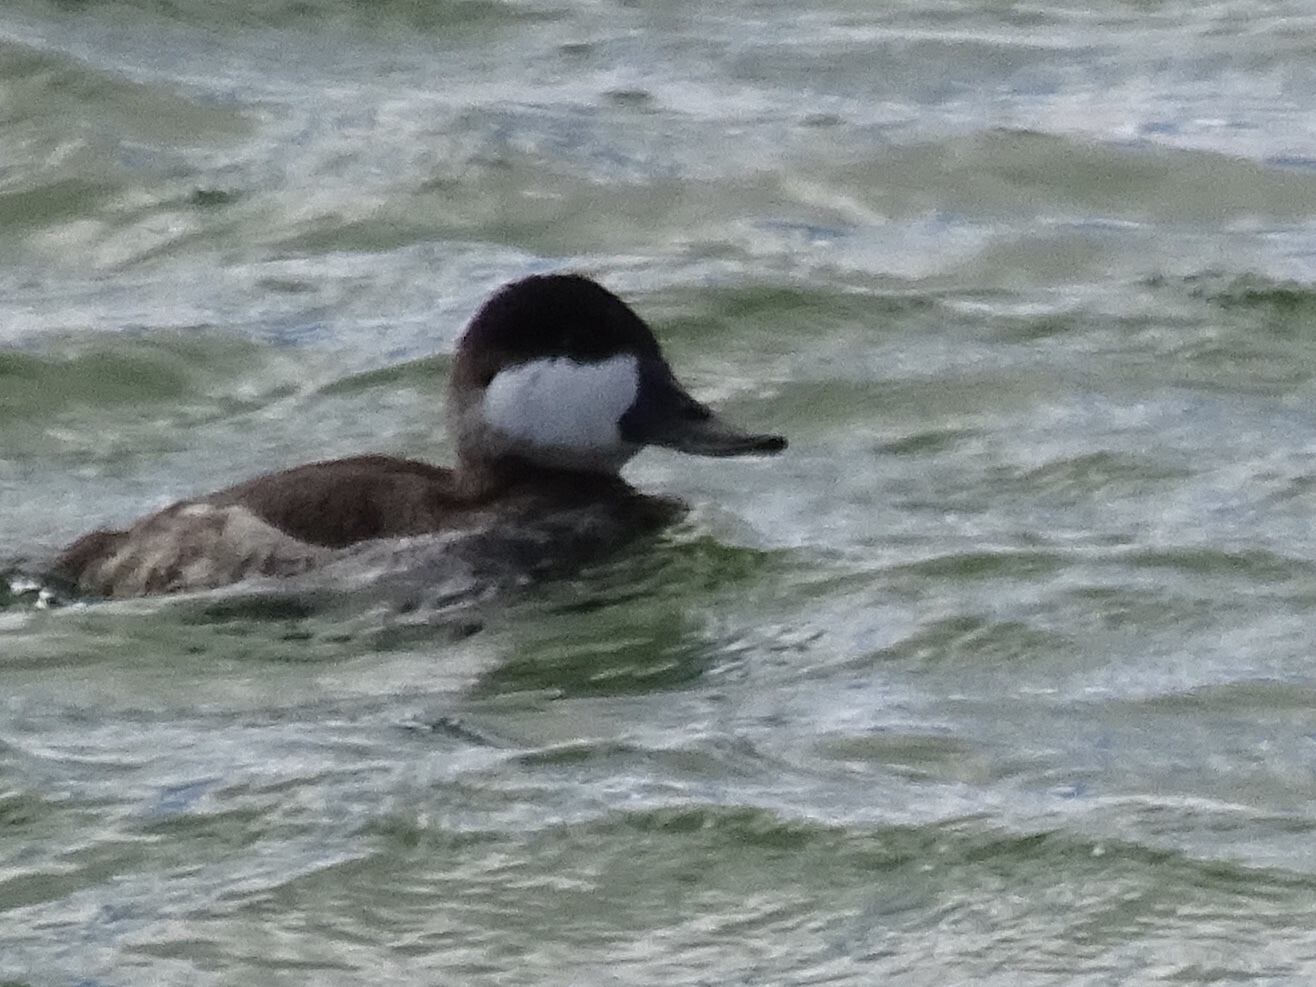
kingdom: Animalia
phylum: Chordata
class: Aves
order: Anseriformes
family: Anatidae
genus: Oxyura
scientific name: Oxyura jamaicensis
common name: Ruddy duck
